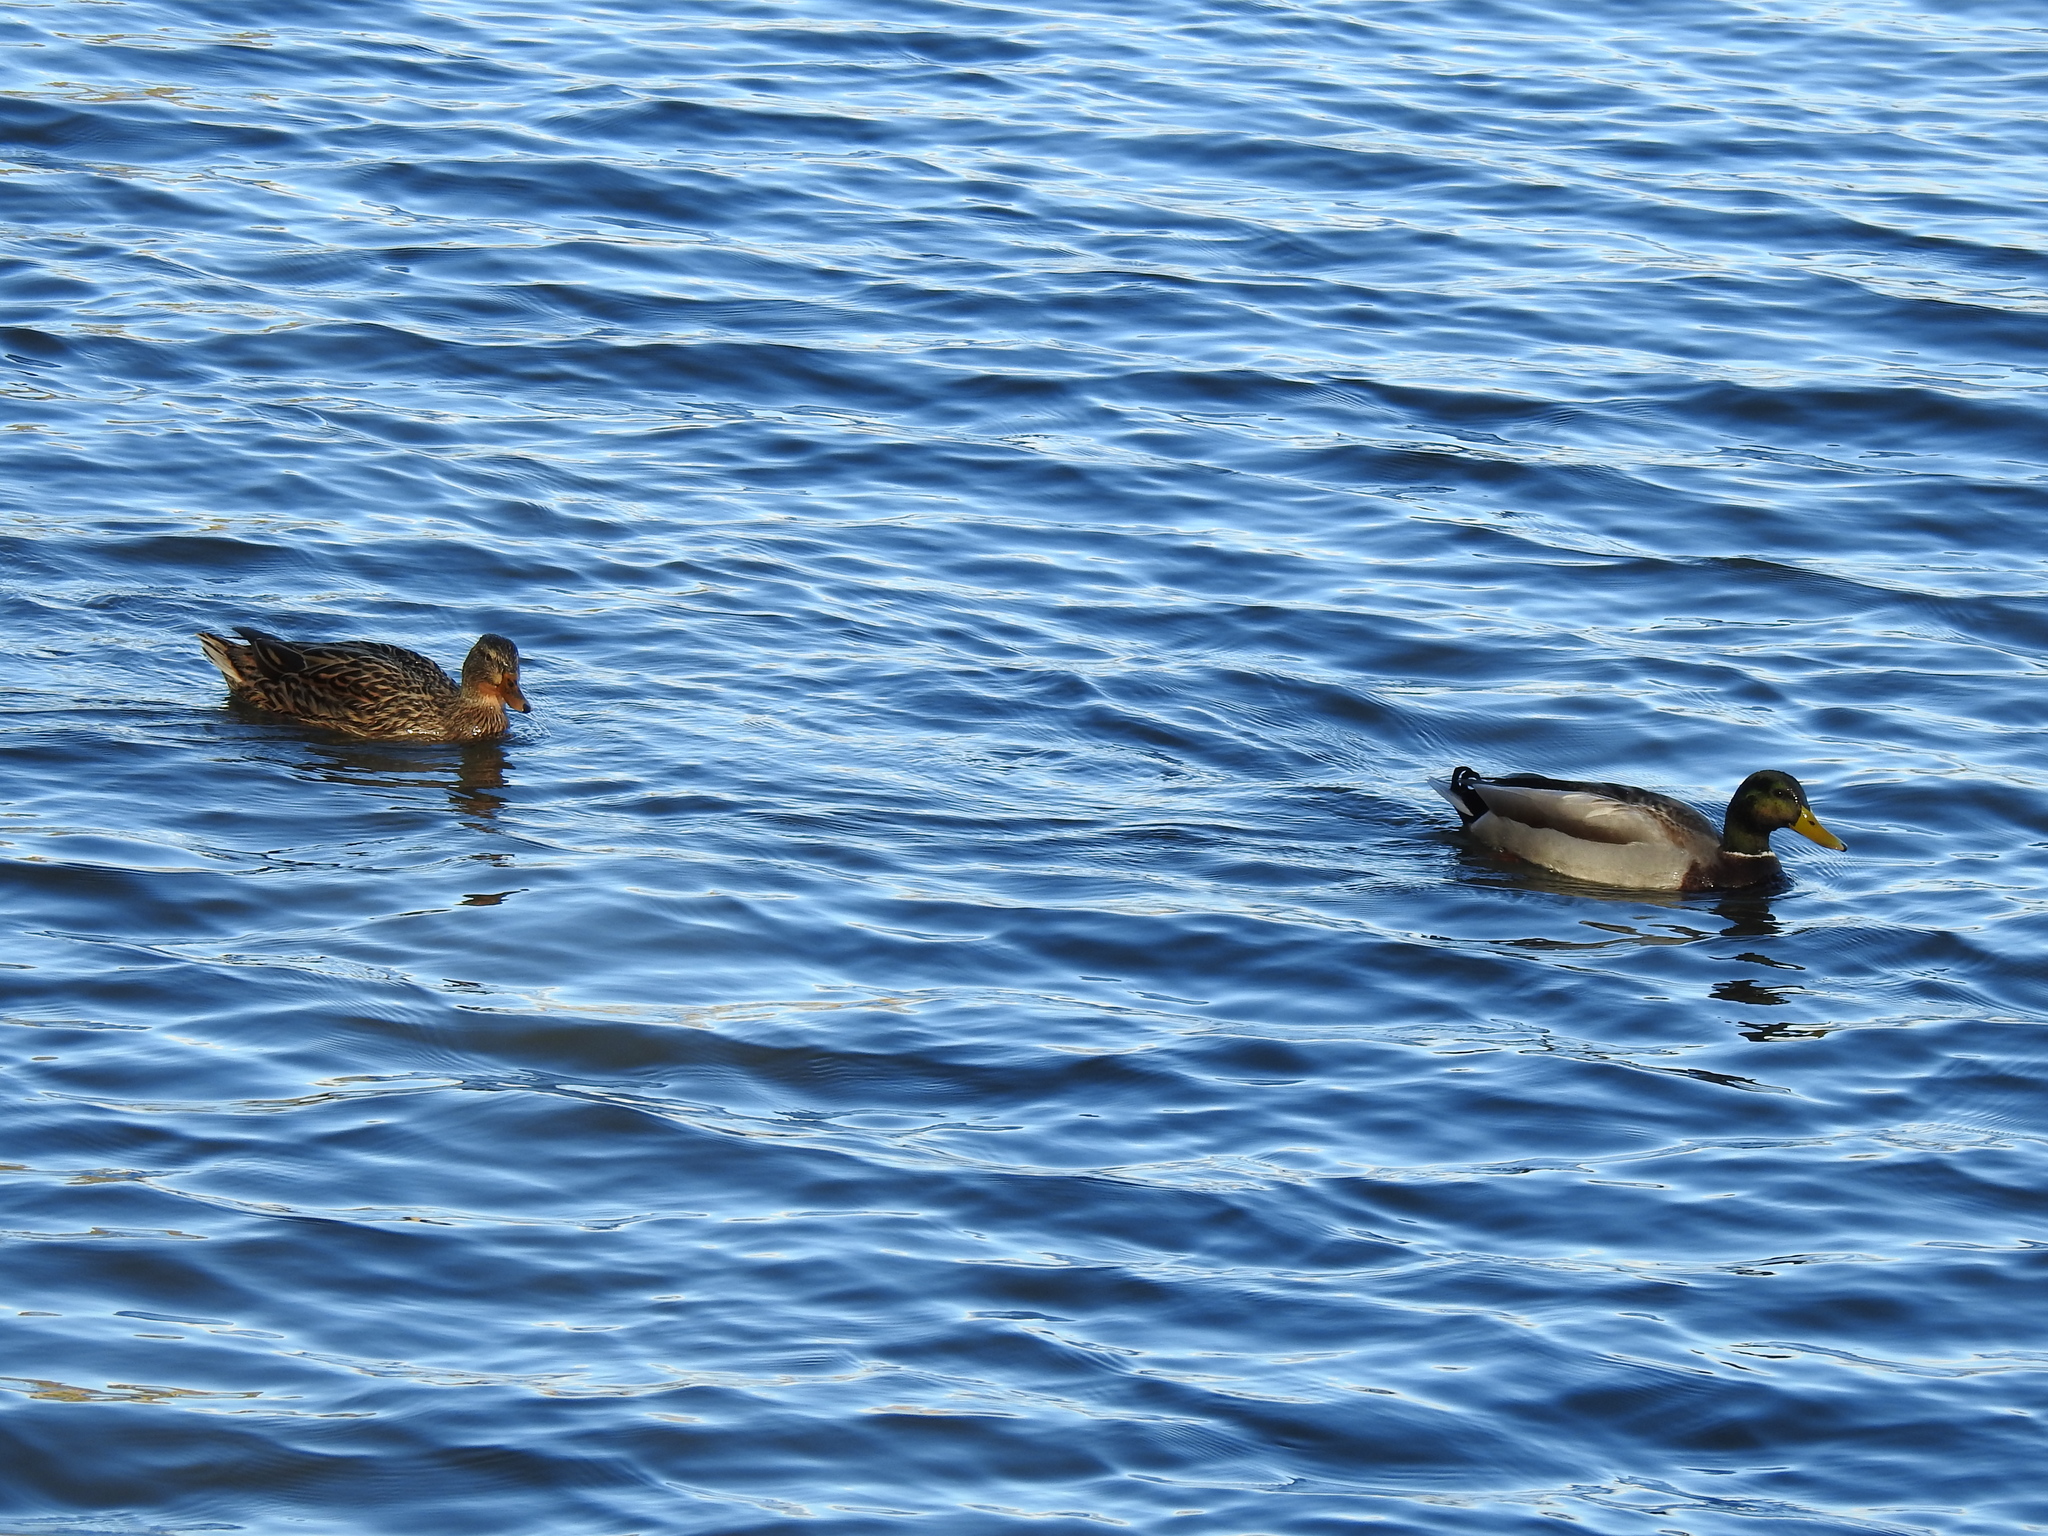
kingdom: Animalia
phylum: Chordata
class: Aves
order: Anseriformes
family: Anatidae
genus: Anas
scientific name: Anas platyrhynchos
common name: Mallard
